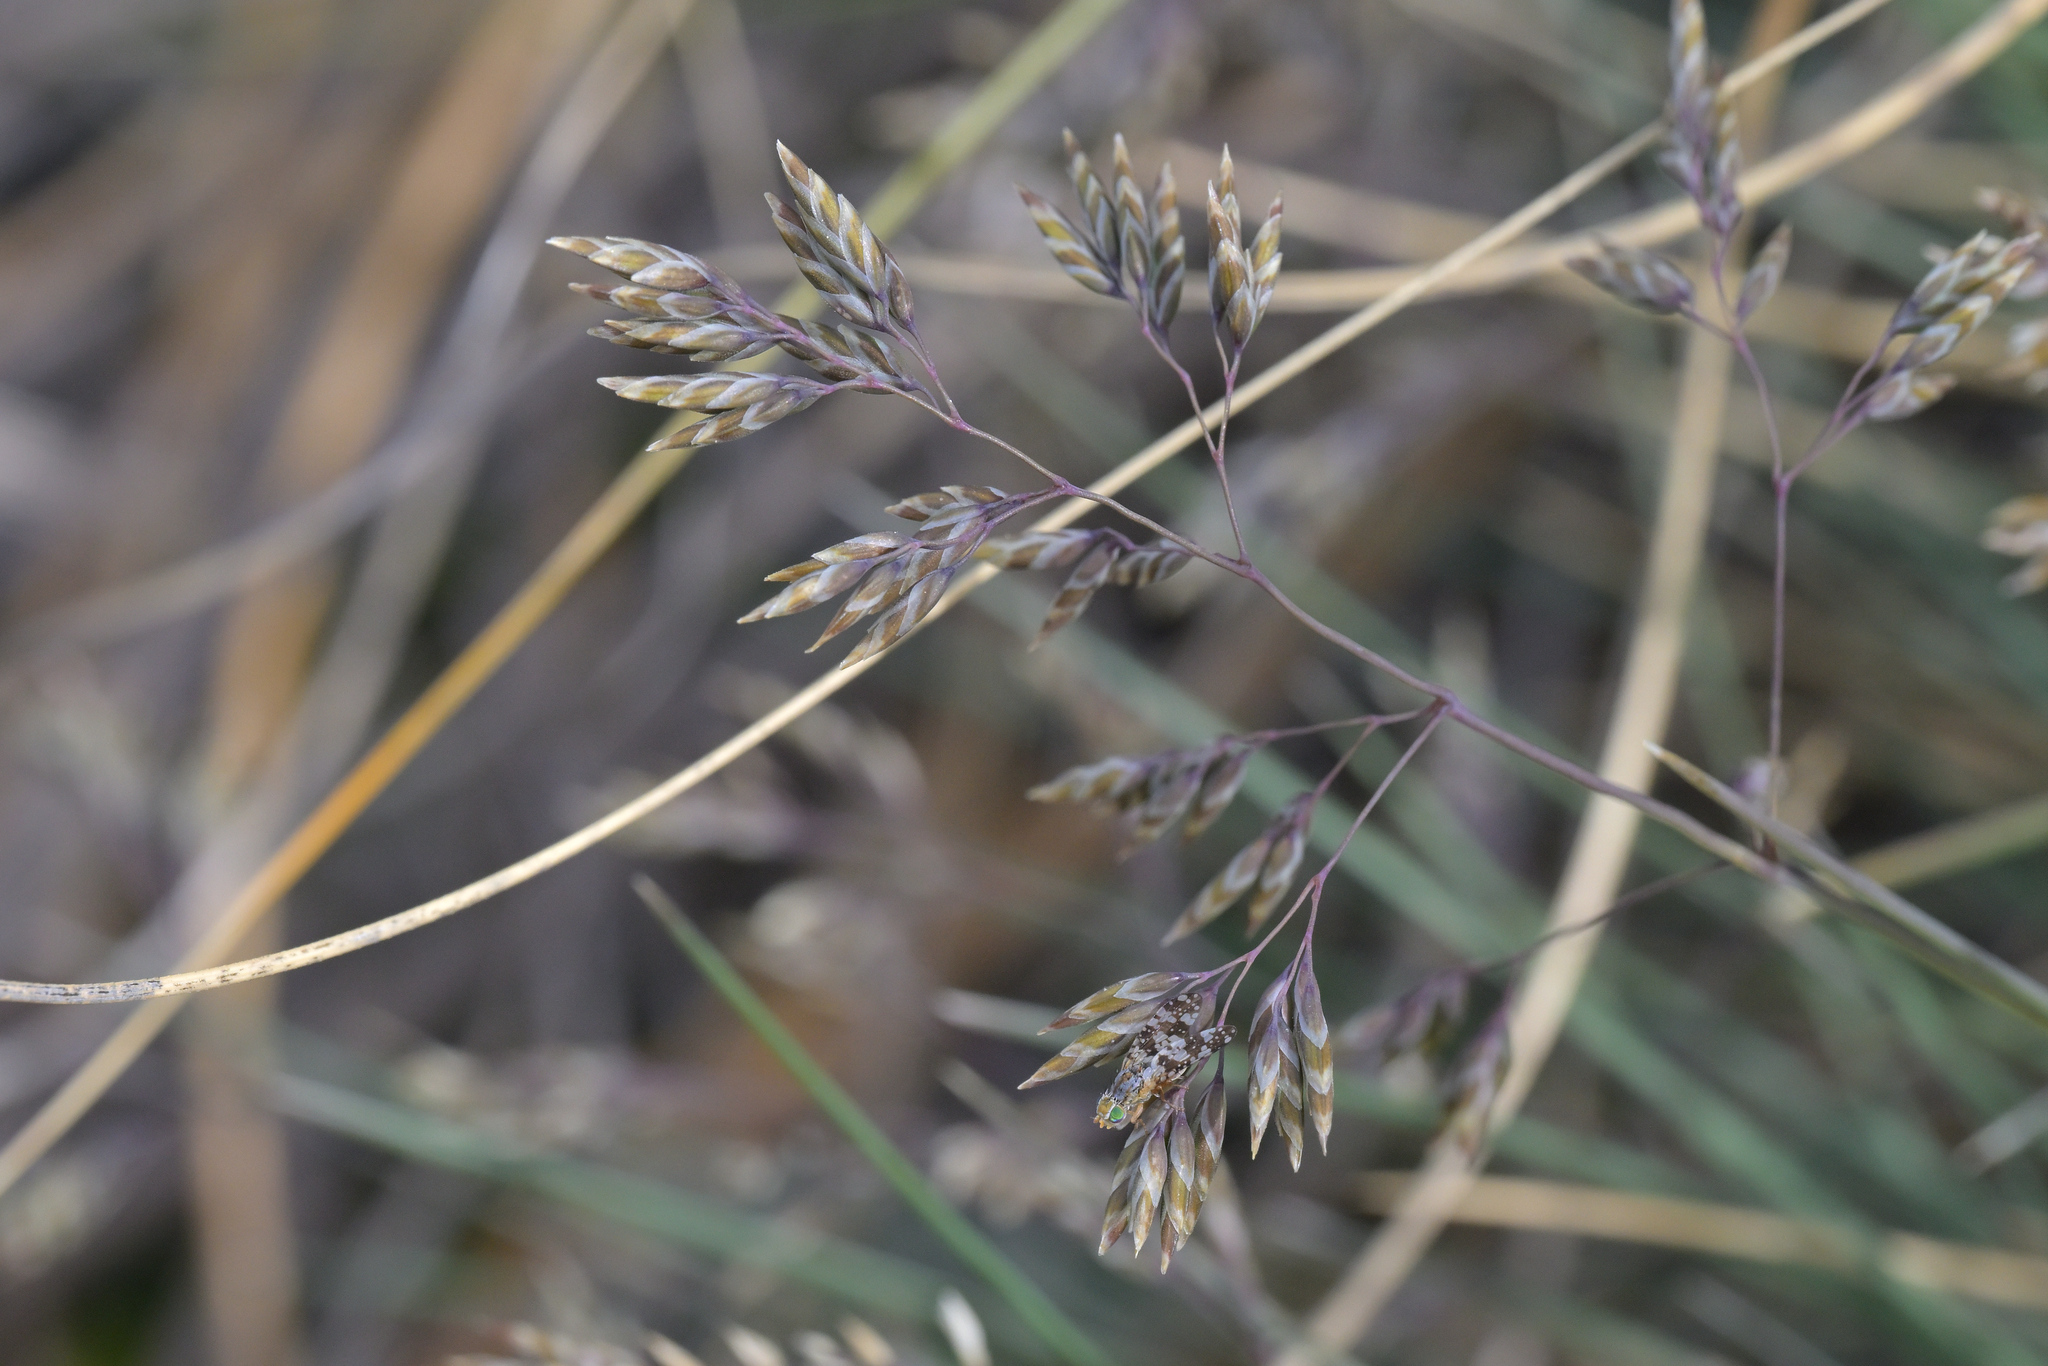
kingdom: Plantae
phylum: Tracheophyta
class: Liliopsida
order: Poales
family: Poaceae
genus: Poa
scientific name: Poa colensoi
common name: Blue tussock
